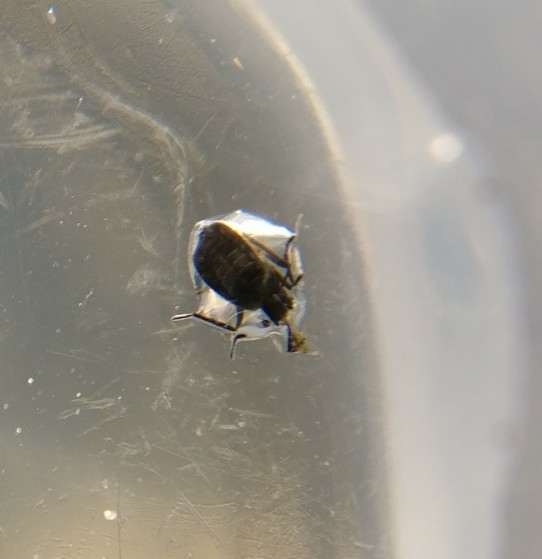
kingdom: Animalia
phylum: Arthropoda
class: Insecta
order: Hemiptera
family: Veliidae
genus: Microvelia
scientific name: Microvelia macgregori
